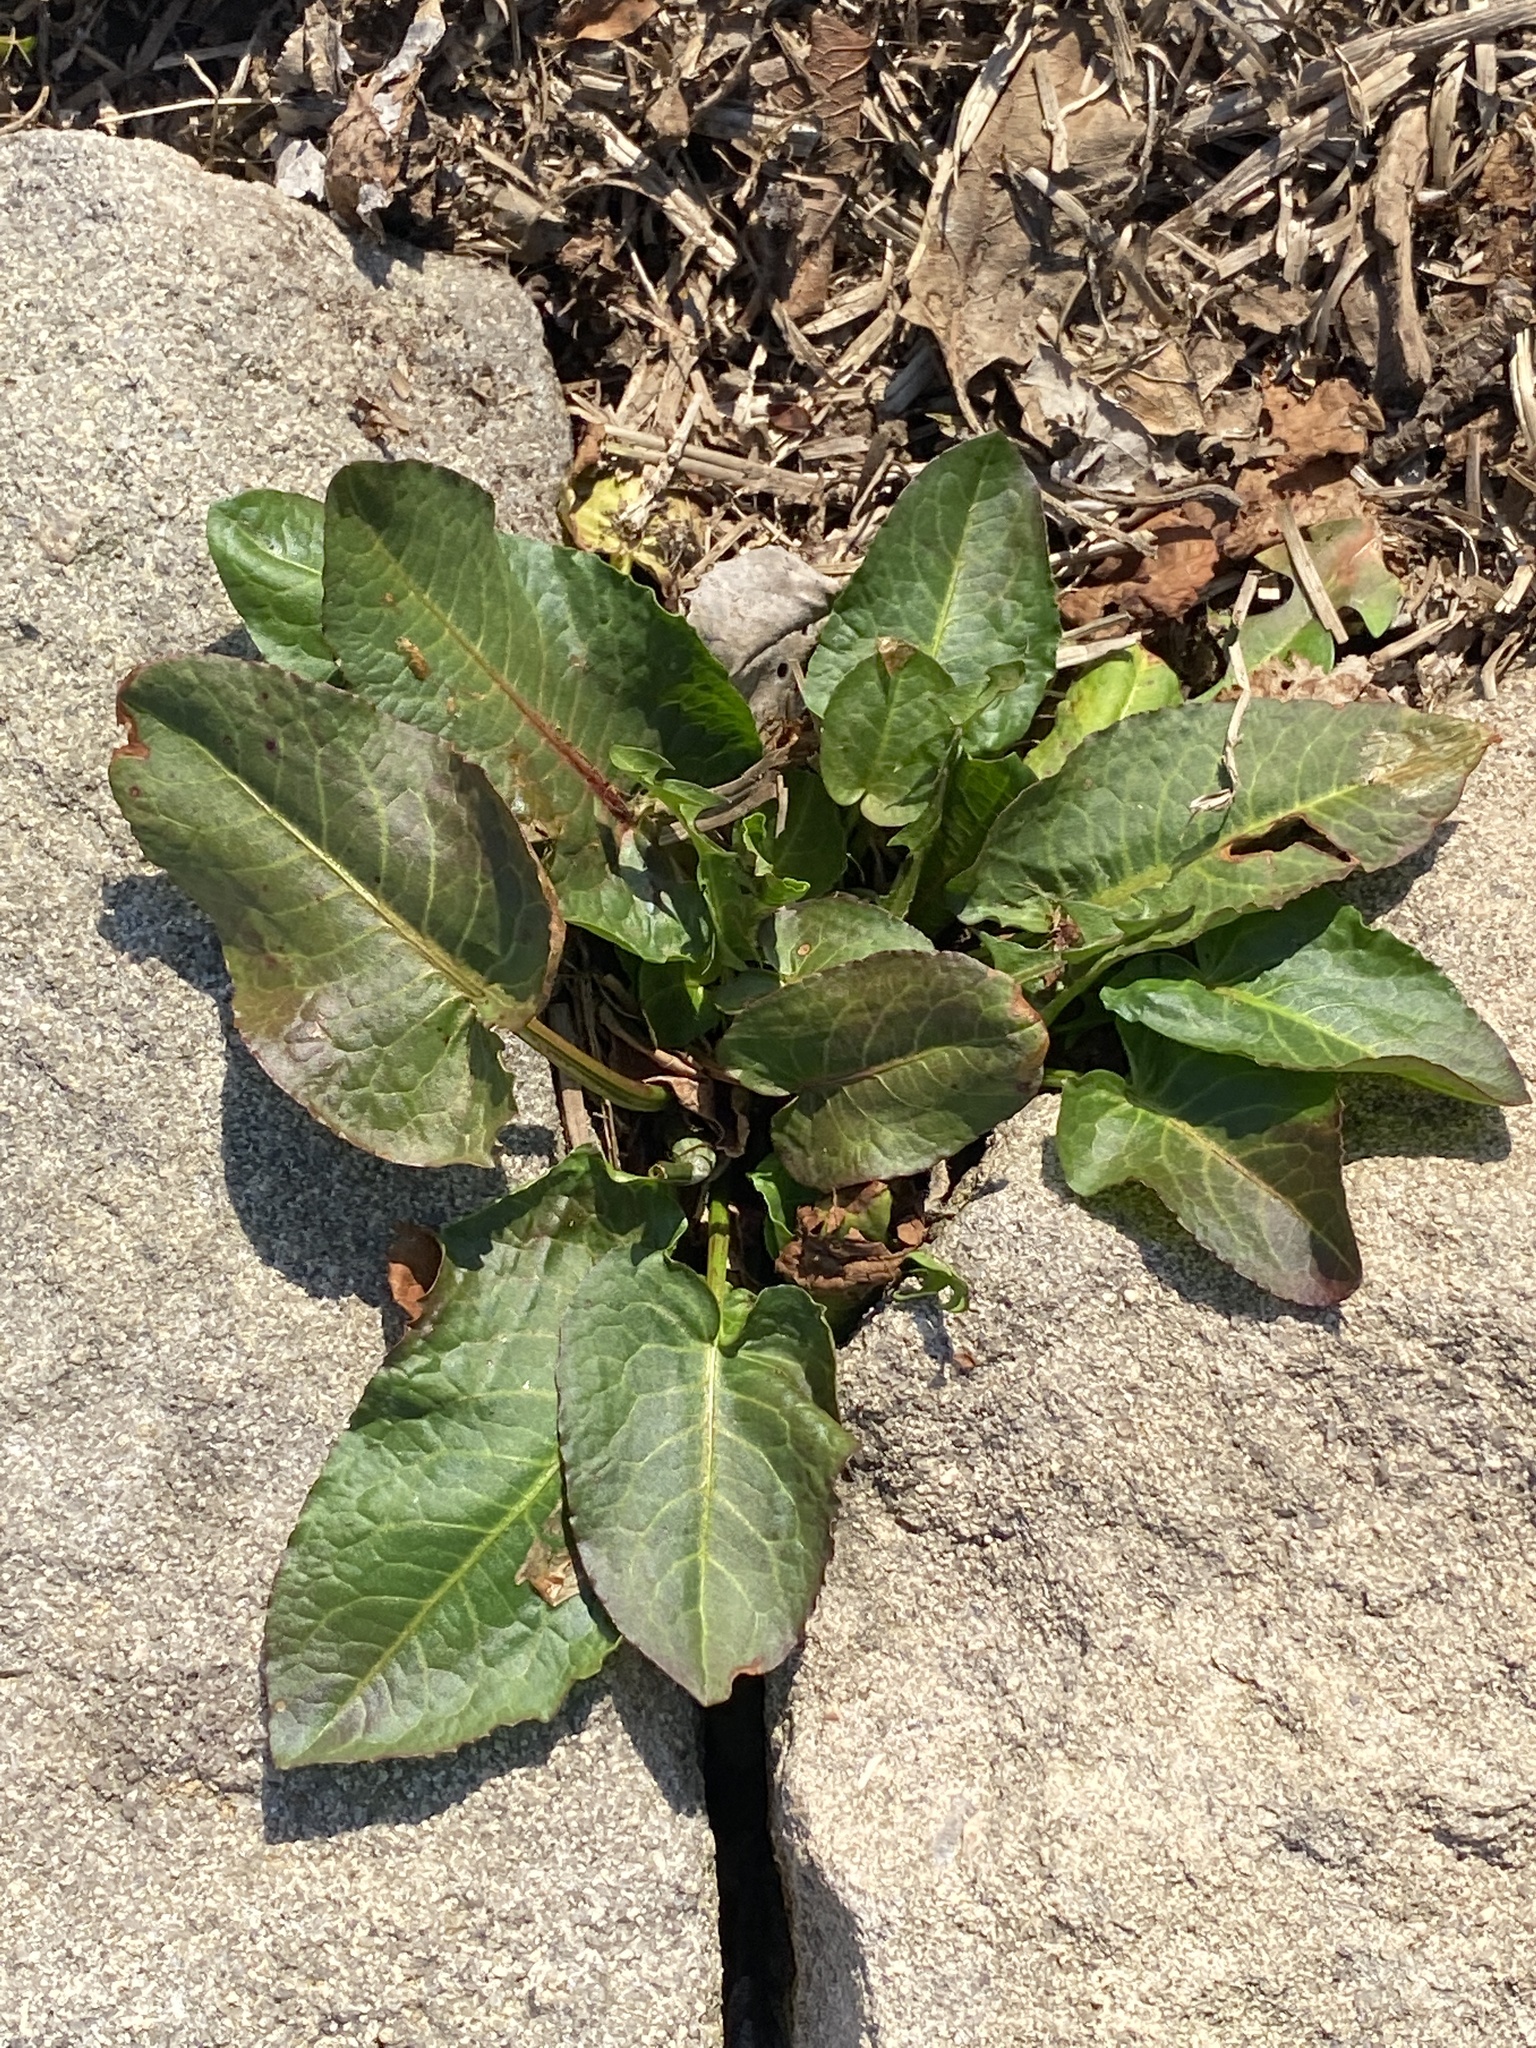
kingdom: Plantae
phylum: Tracheophyta
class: Magnoliopsida
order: Caryophyllales
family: Polygonaceae
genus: Rumex
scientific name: Rumex obtusifolius
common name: Bitter dock
